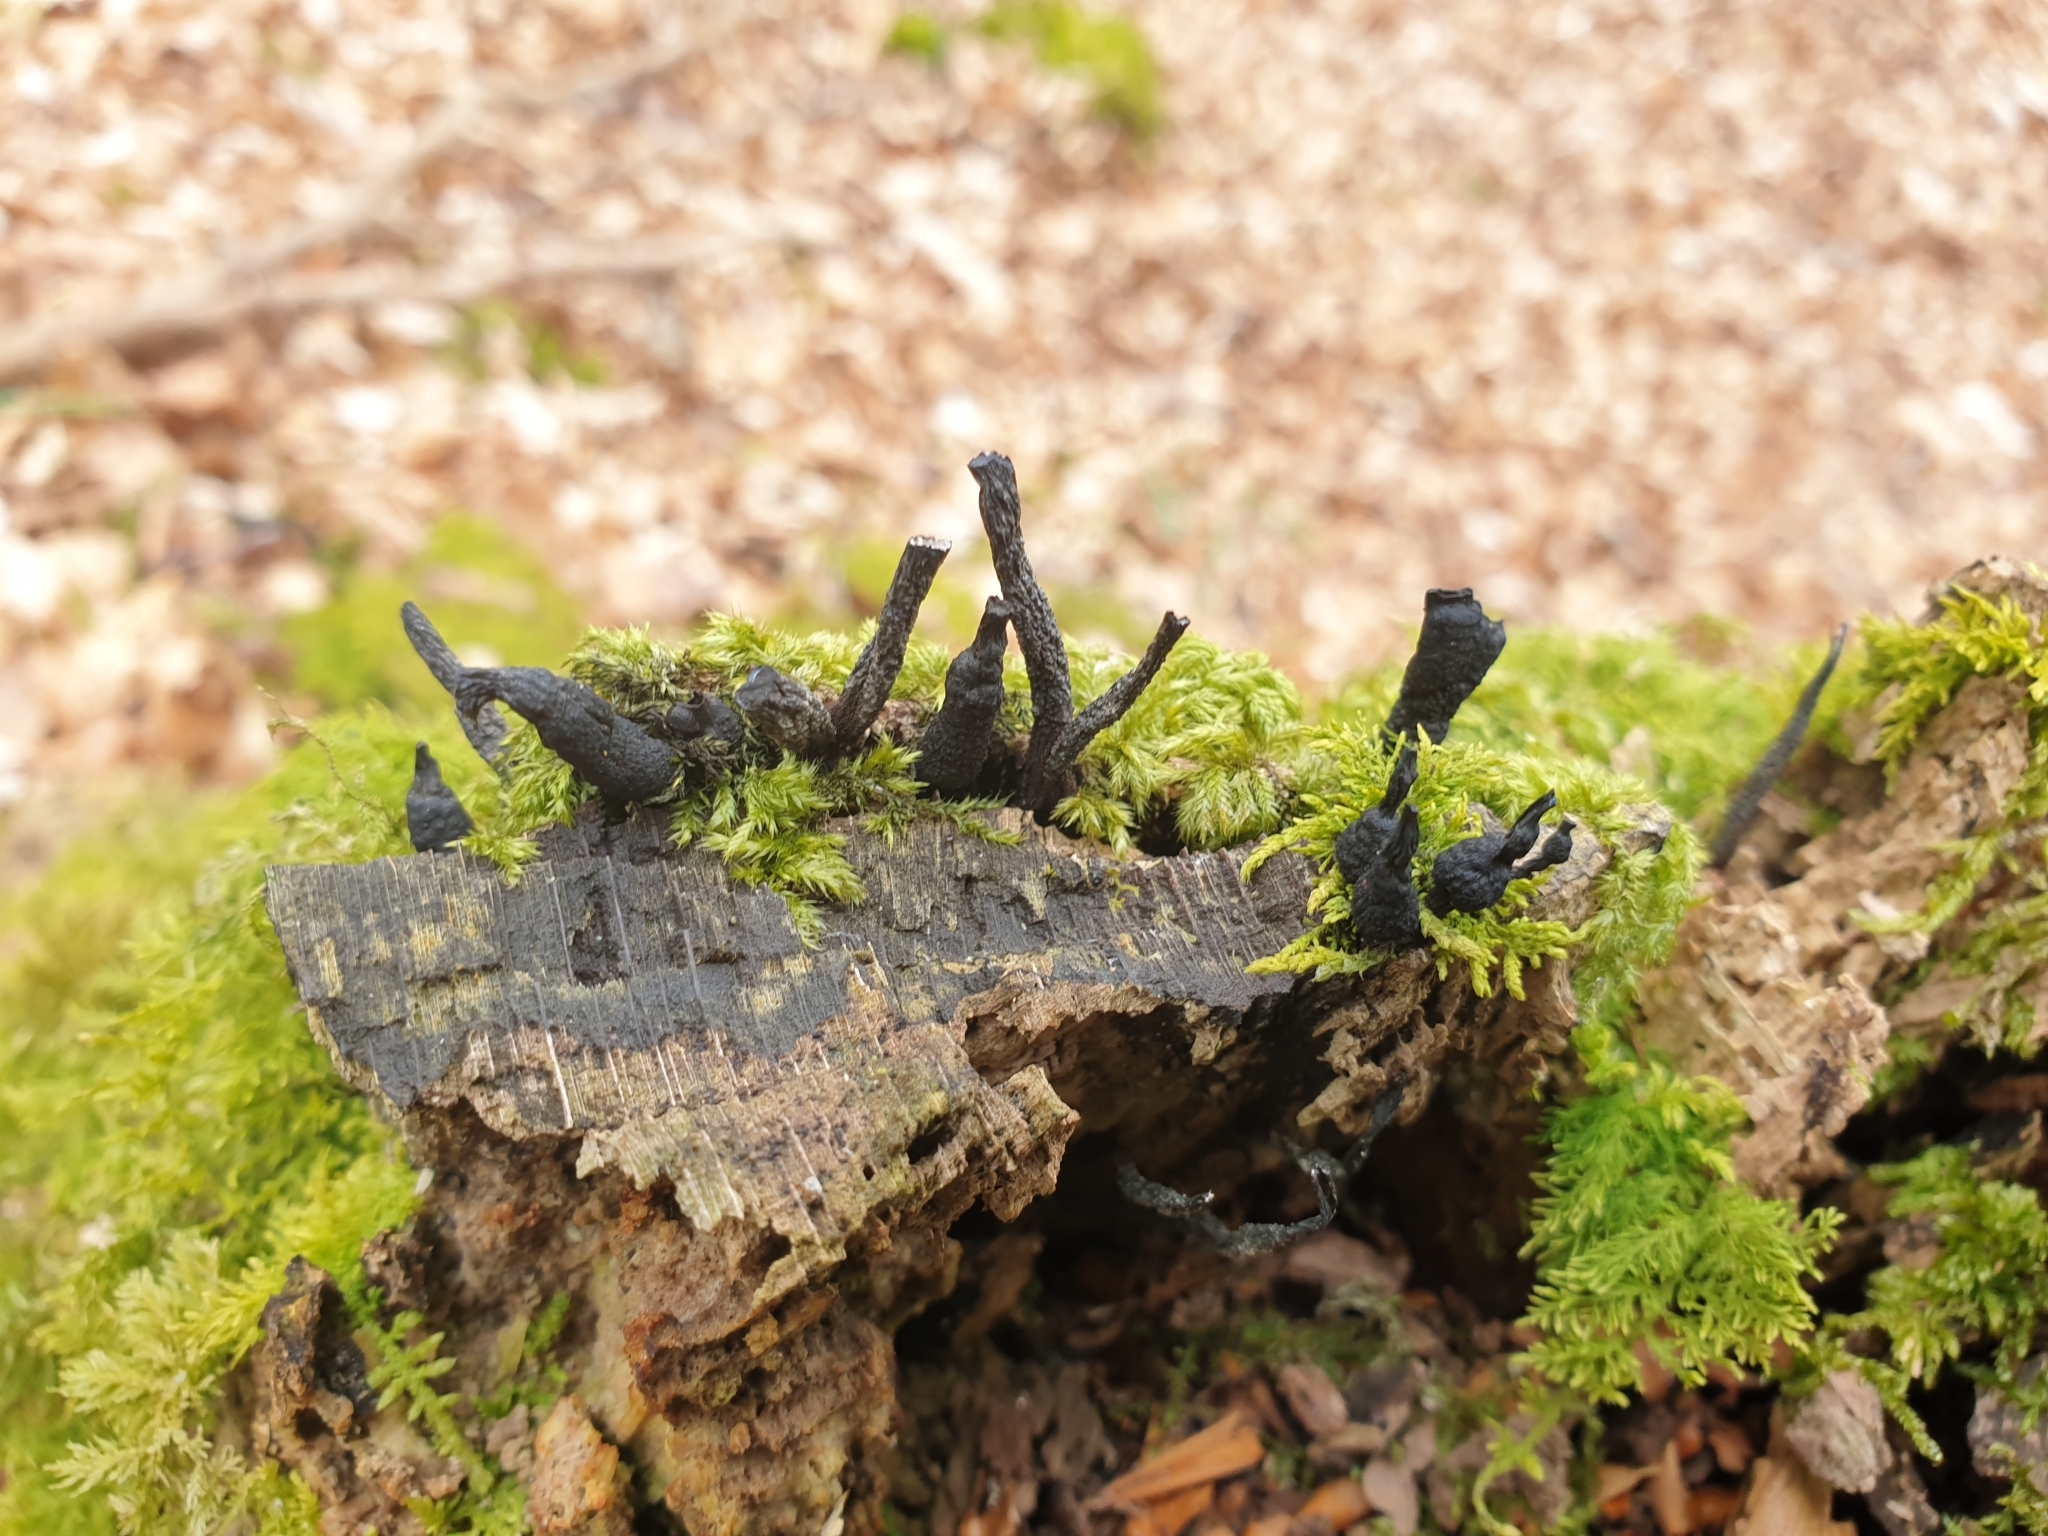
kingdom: Fungi
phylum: Ascomycota
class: Sordariomycetes
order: Xylariales
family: Xylariaceae
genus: Xylaria
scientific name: Xylaria hypoxylon
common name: Candle-snuff fungus
